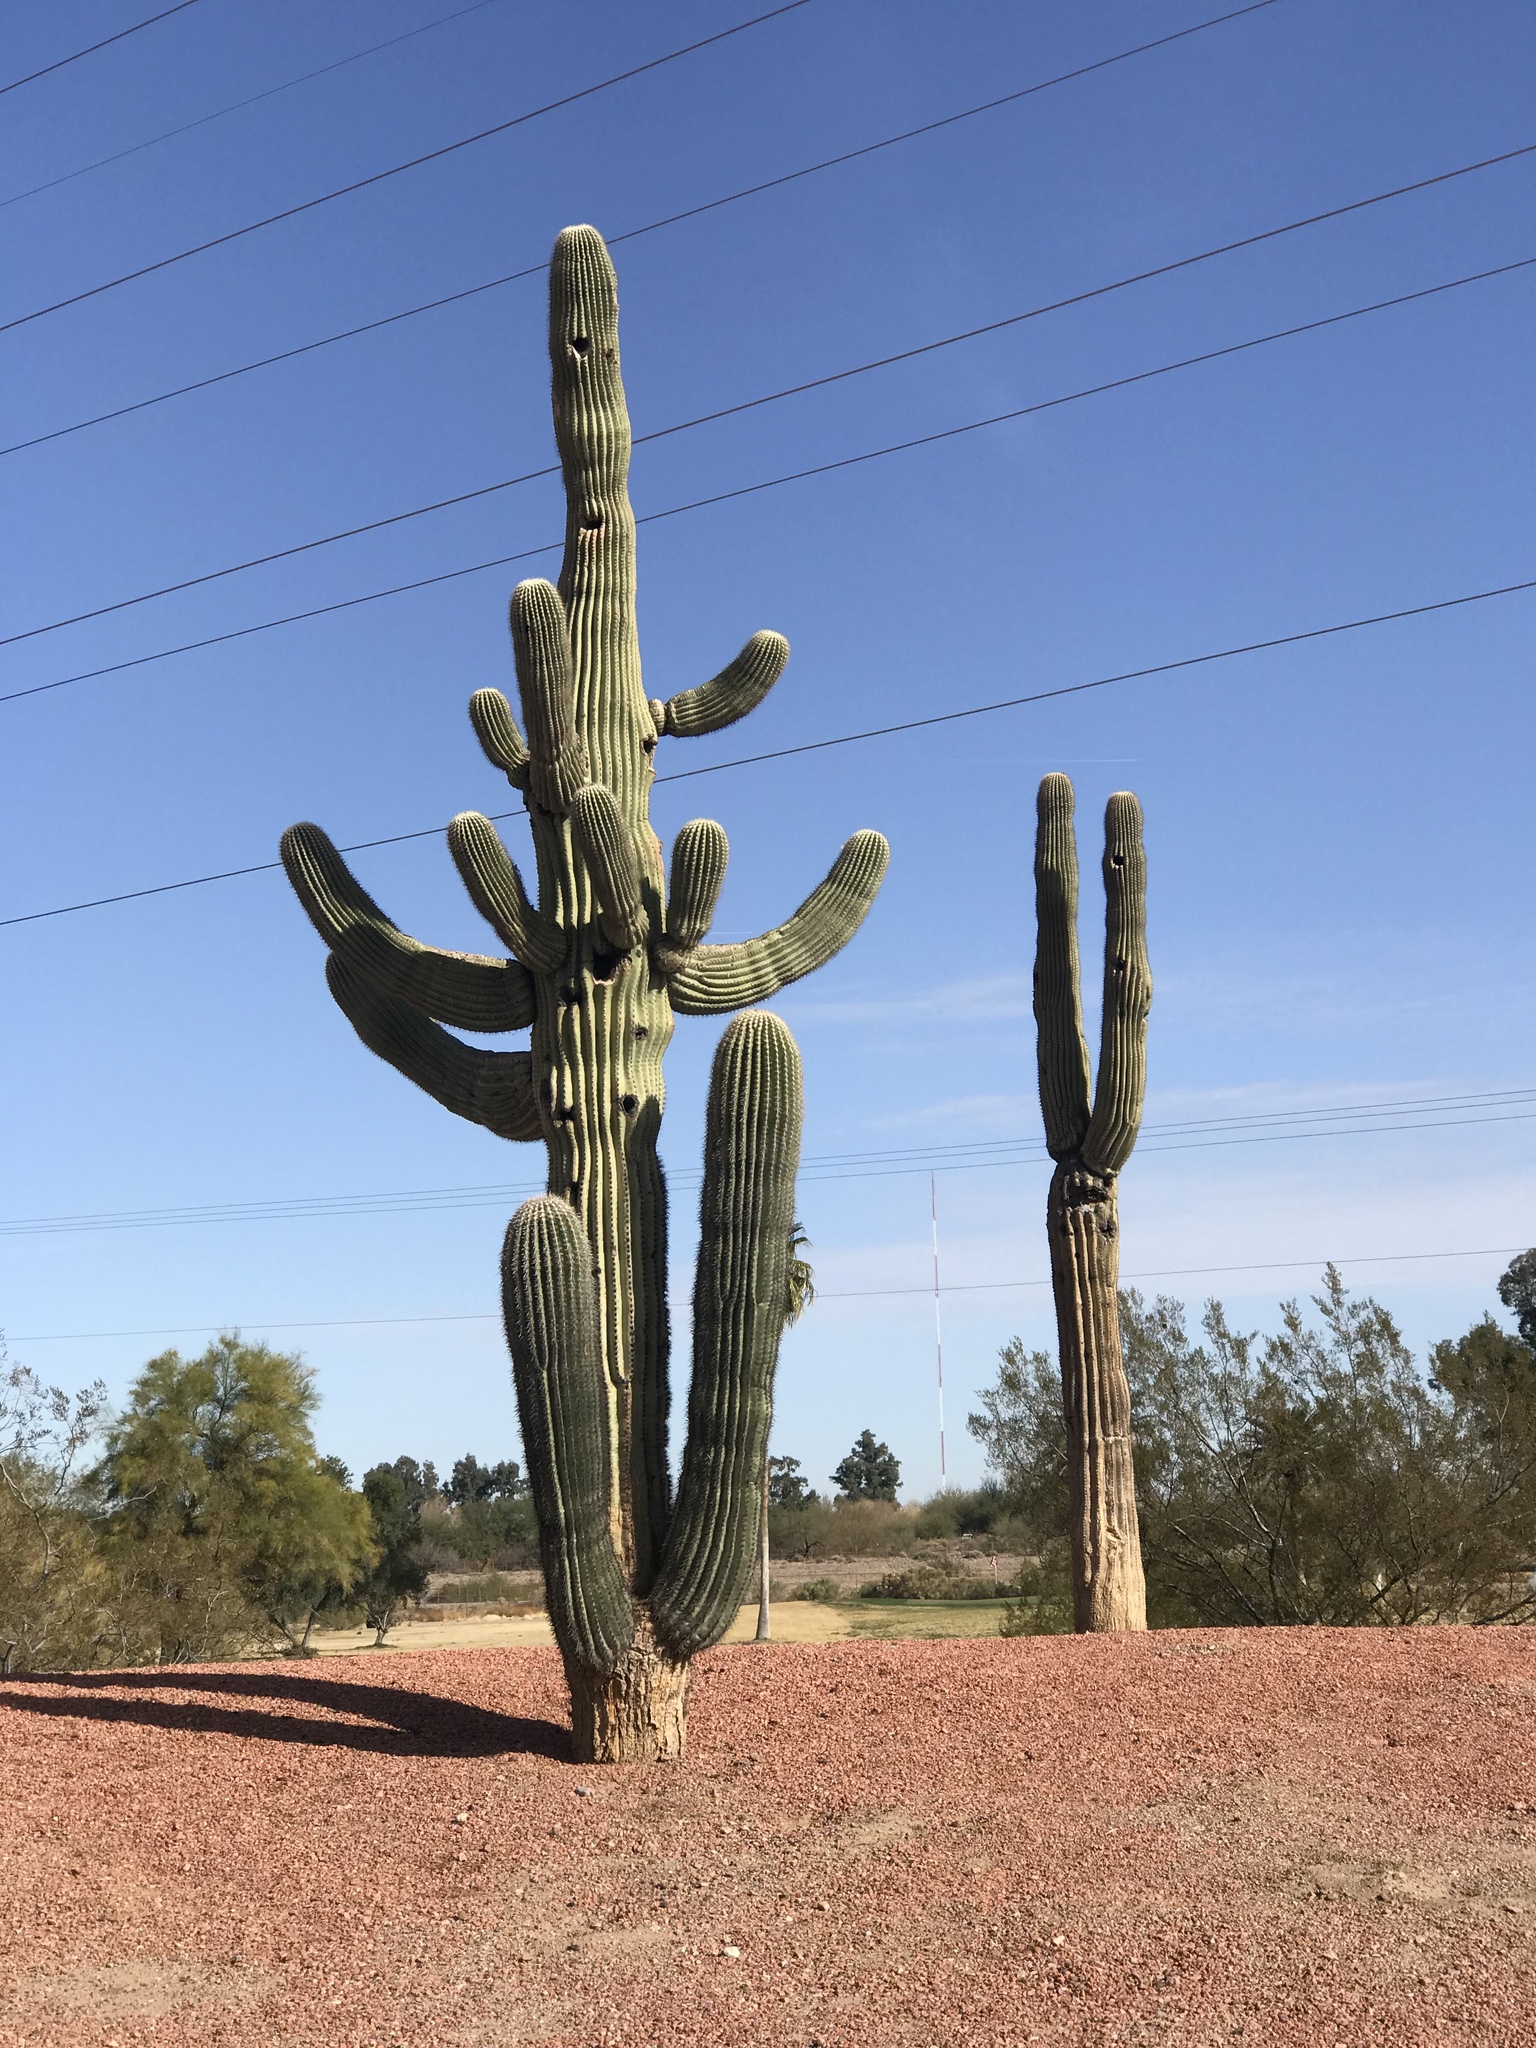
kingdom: Plantae
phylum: Tracheophyta
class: Magnoliopsida
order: Caryophyllales
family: Cactaceae
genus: Carnegiea
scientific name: Carnegiea gigantea
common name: Saguaro
